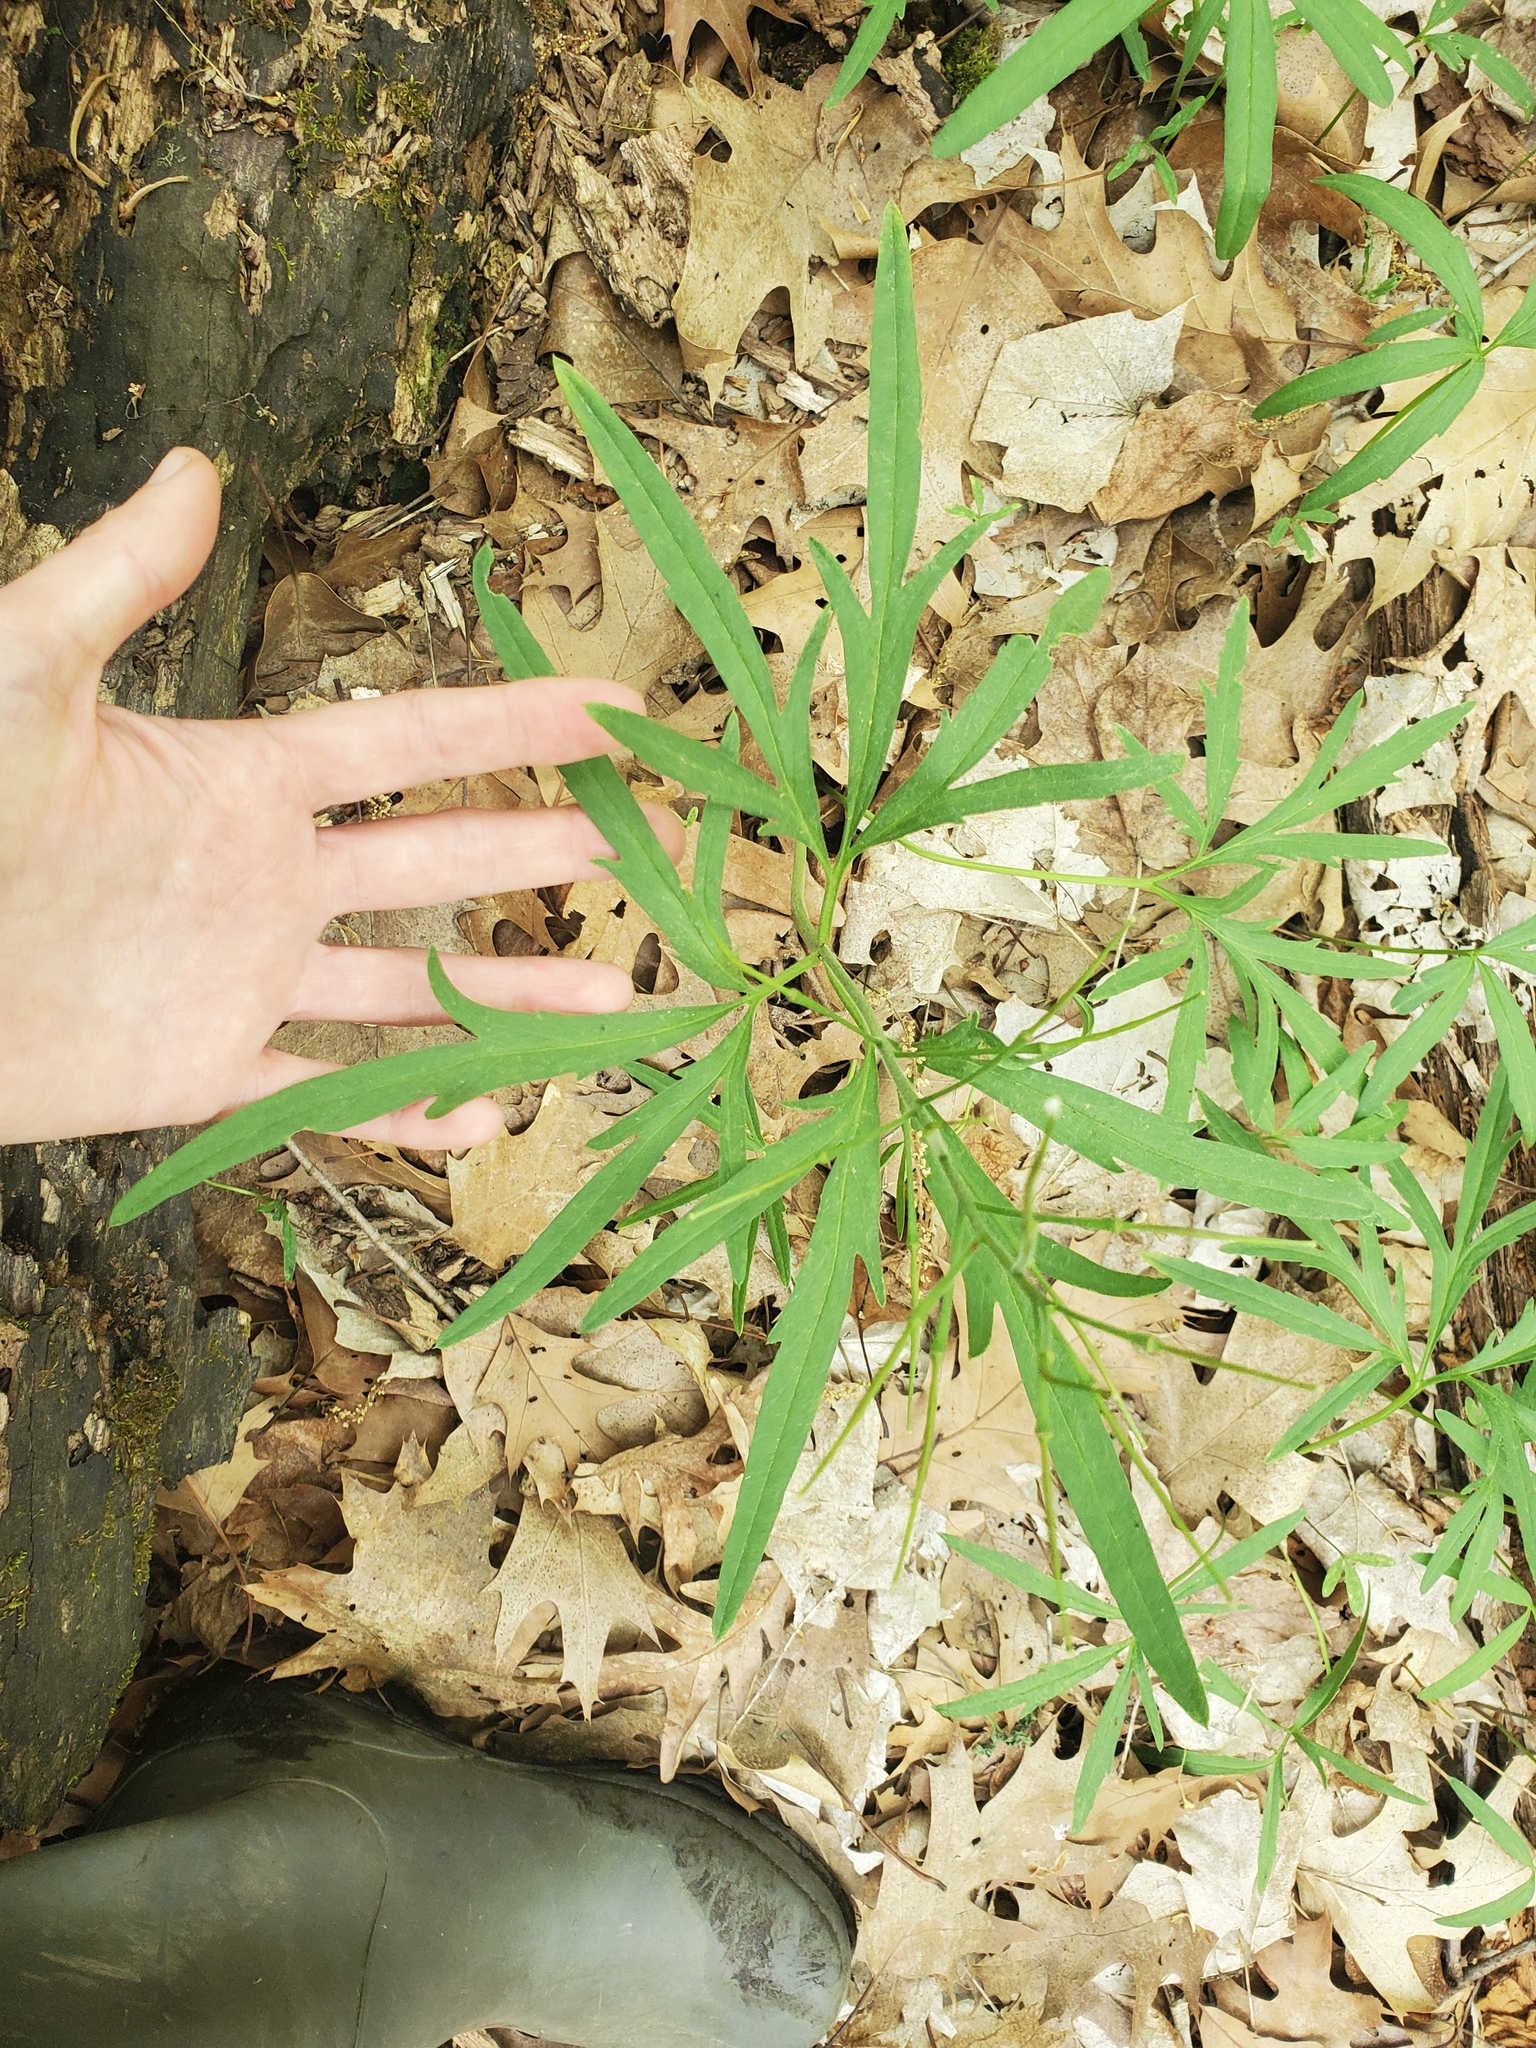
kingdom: Plantae
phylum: Tracheophyta
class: Magnoliopsida
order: Brassicales
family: Brassicaceae
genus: Cardamine
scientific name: Cardamine concatenata
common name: Cut-leaf toothcup
